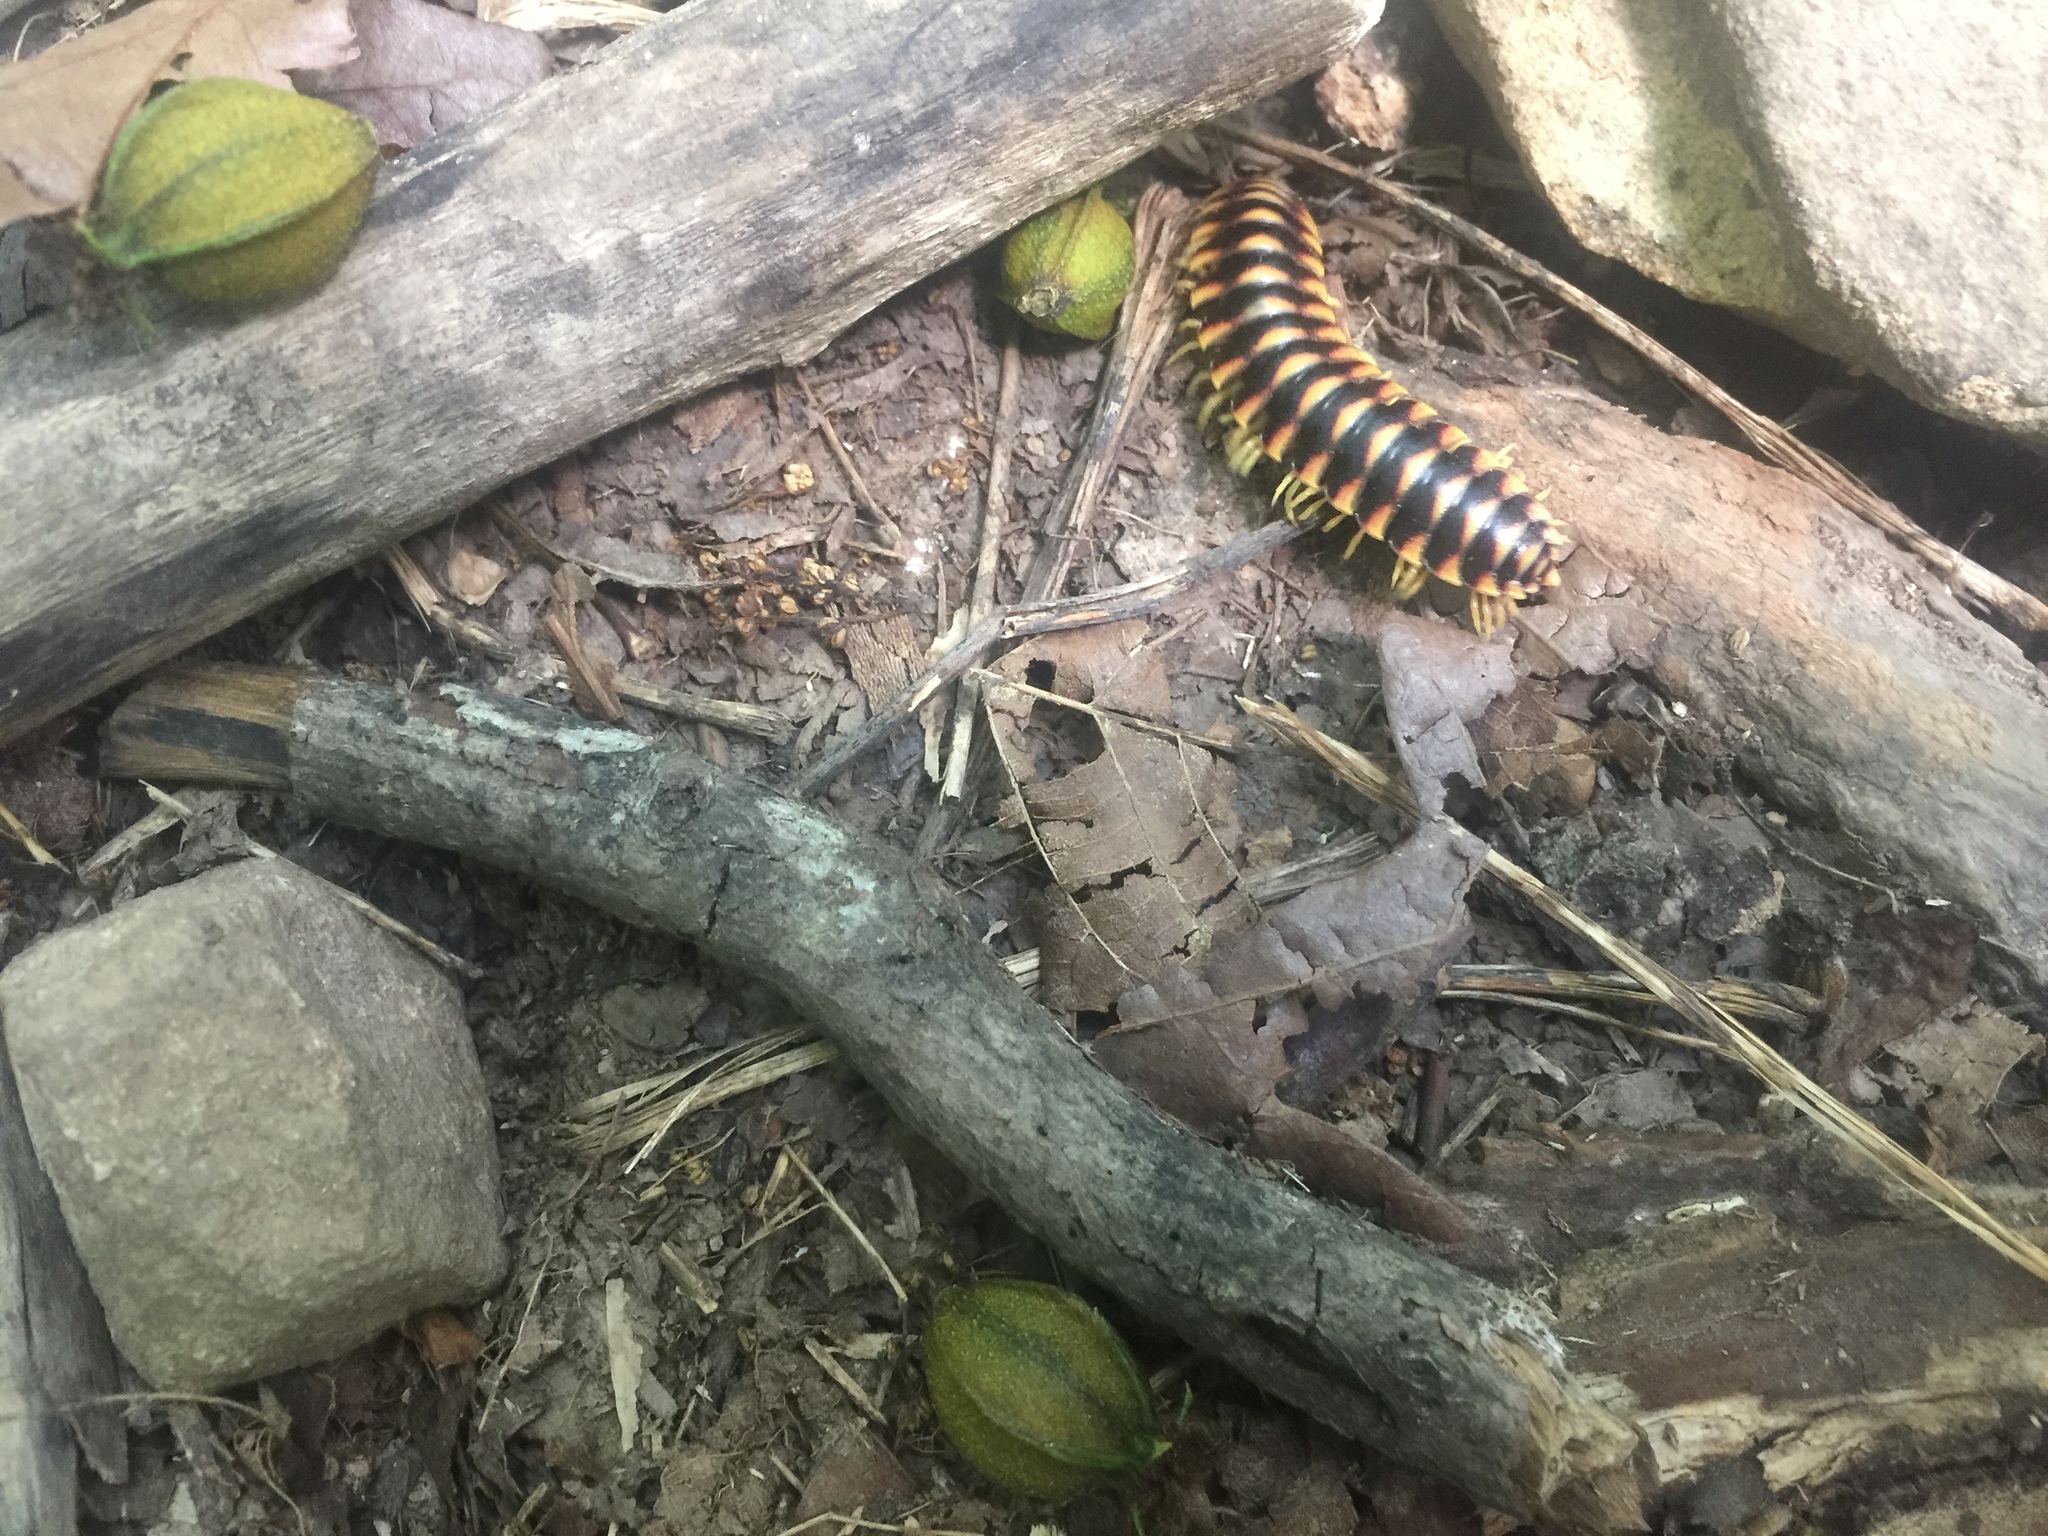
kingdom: Animalia
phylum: Arthropoda
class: Diplopoda
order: Polydesmida
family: Xystodesmidae
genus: Cherokia
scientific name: Cherokia georgiana
